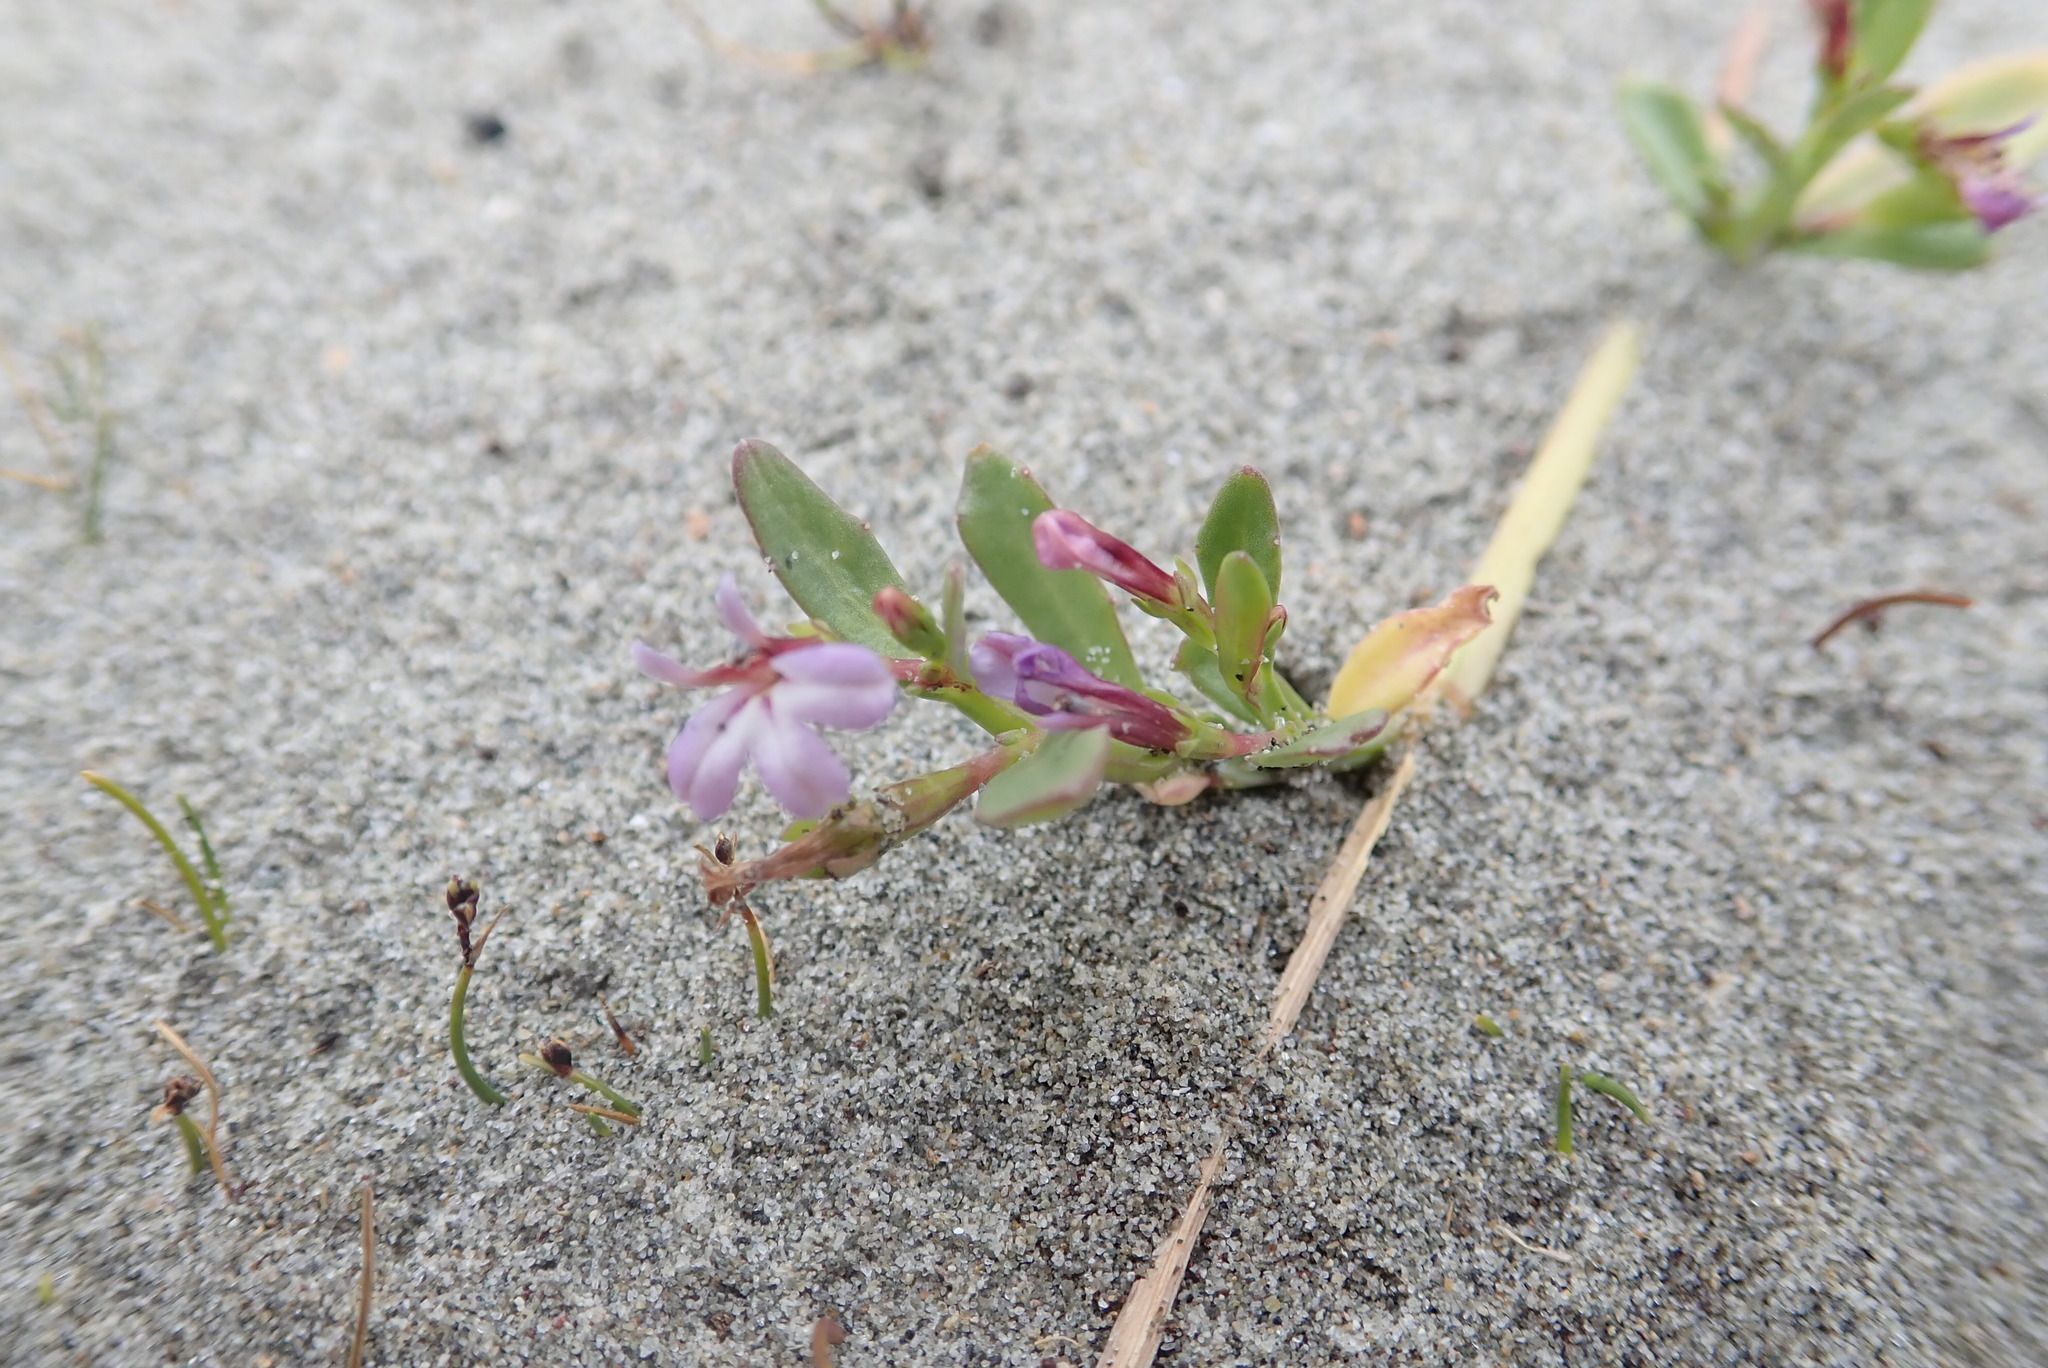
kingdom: Plantae
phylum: Tracheophyta
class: Magnoliopsida
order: Asterales
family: Campanulaceae
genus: Lobelia
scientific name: Lobelia anceps
